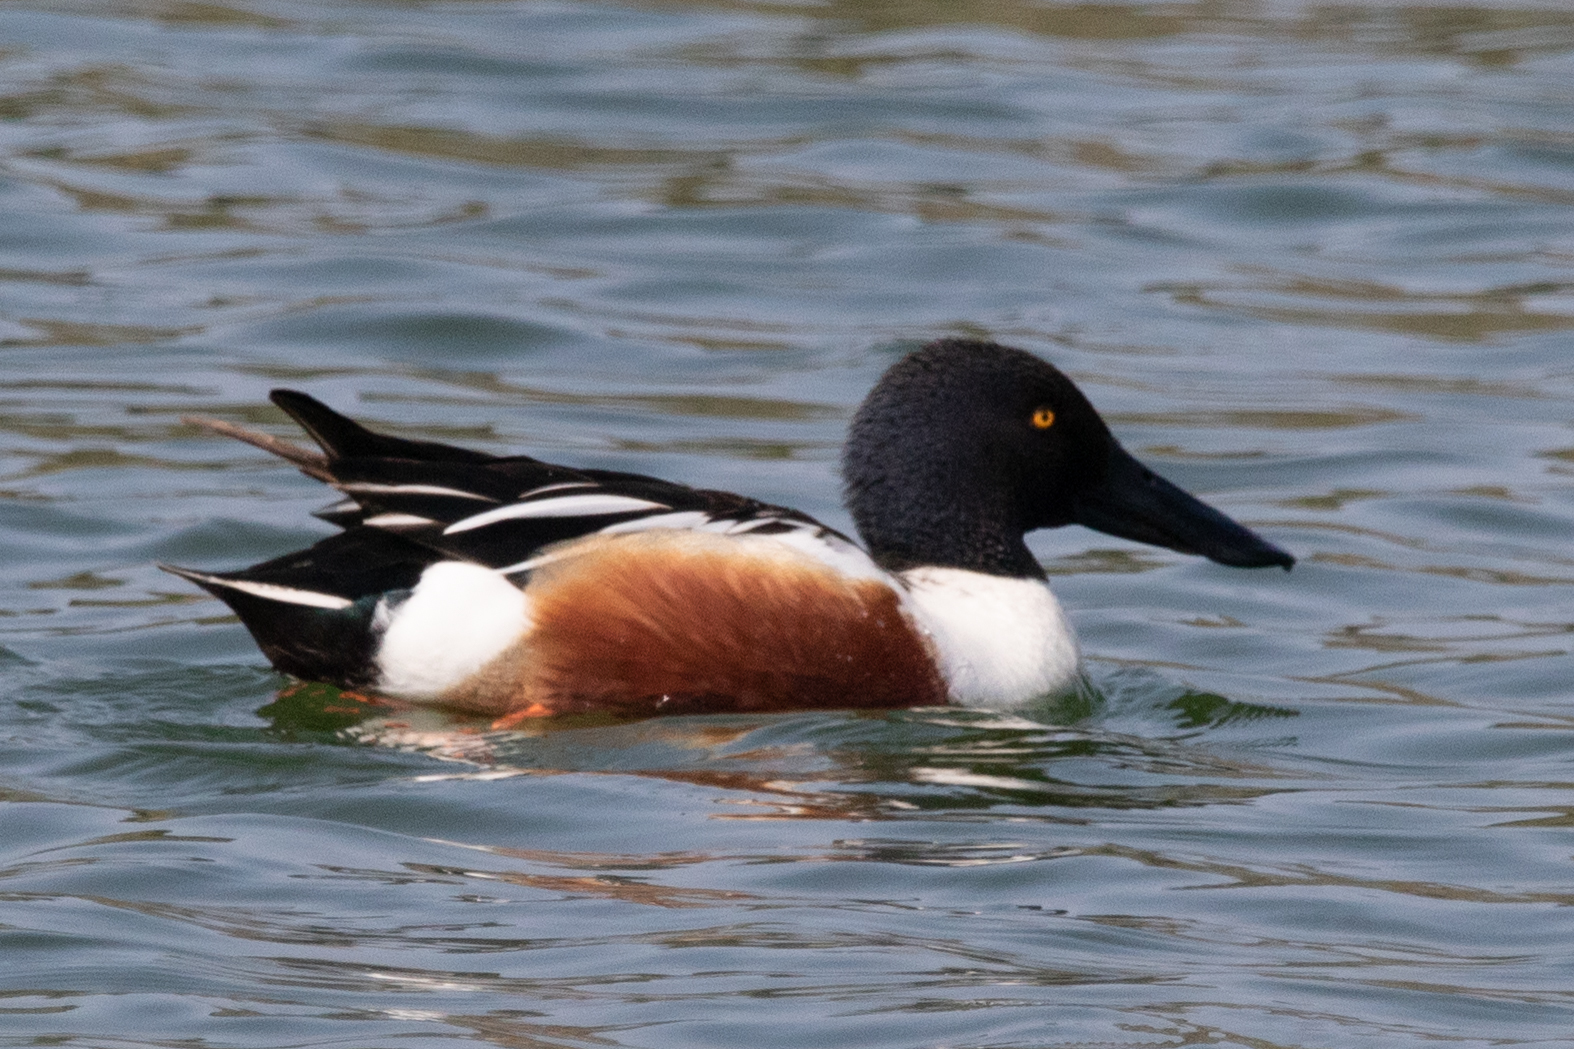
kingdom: Animalia
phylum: Chordata
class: Aves
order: Anseriformes
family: Anatidae
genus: Spatula
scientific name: Spatula clypeata
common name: Northern shoveler
